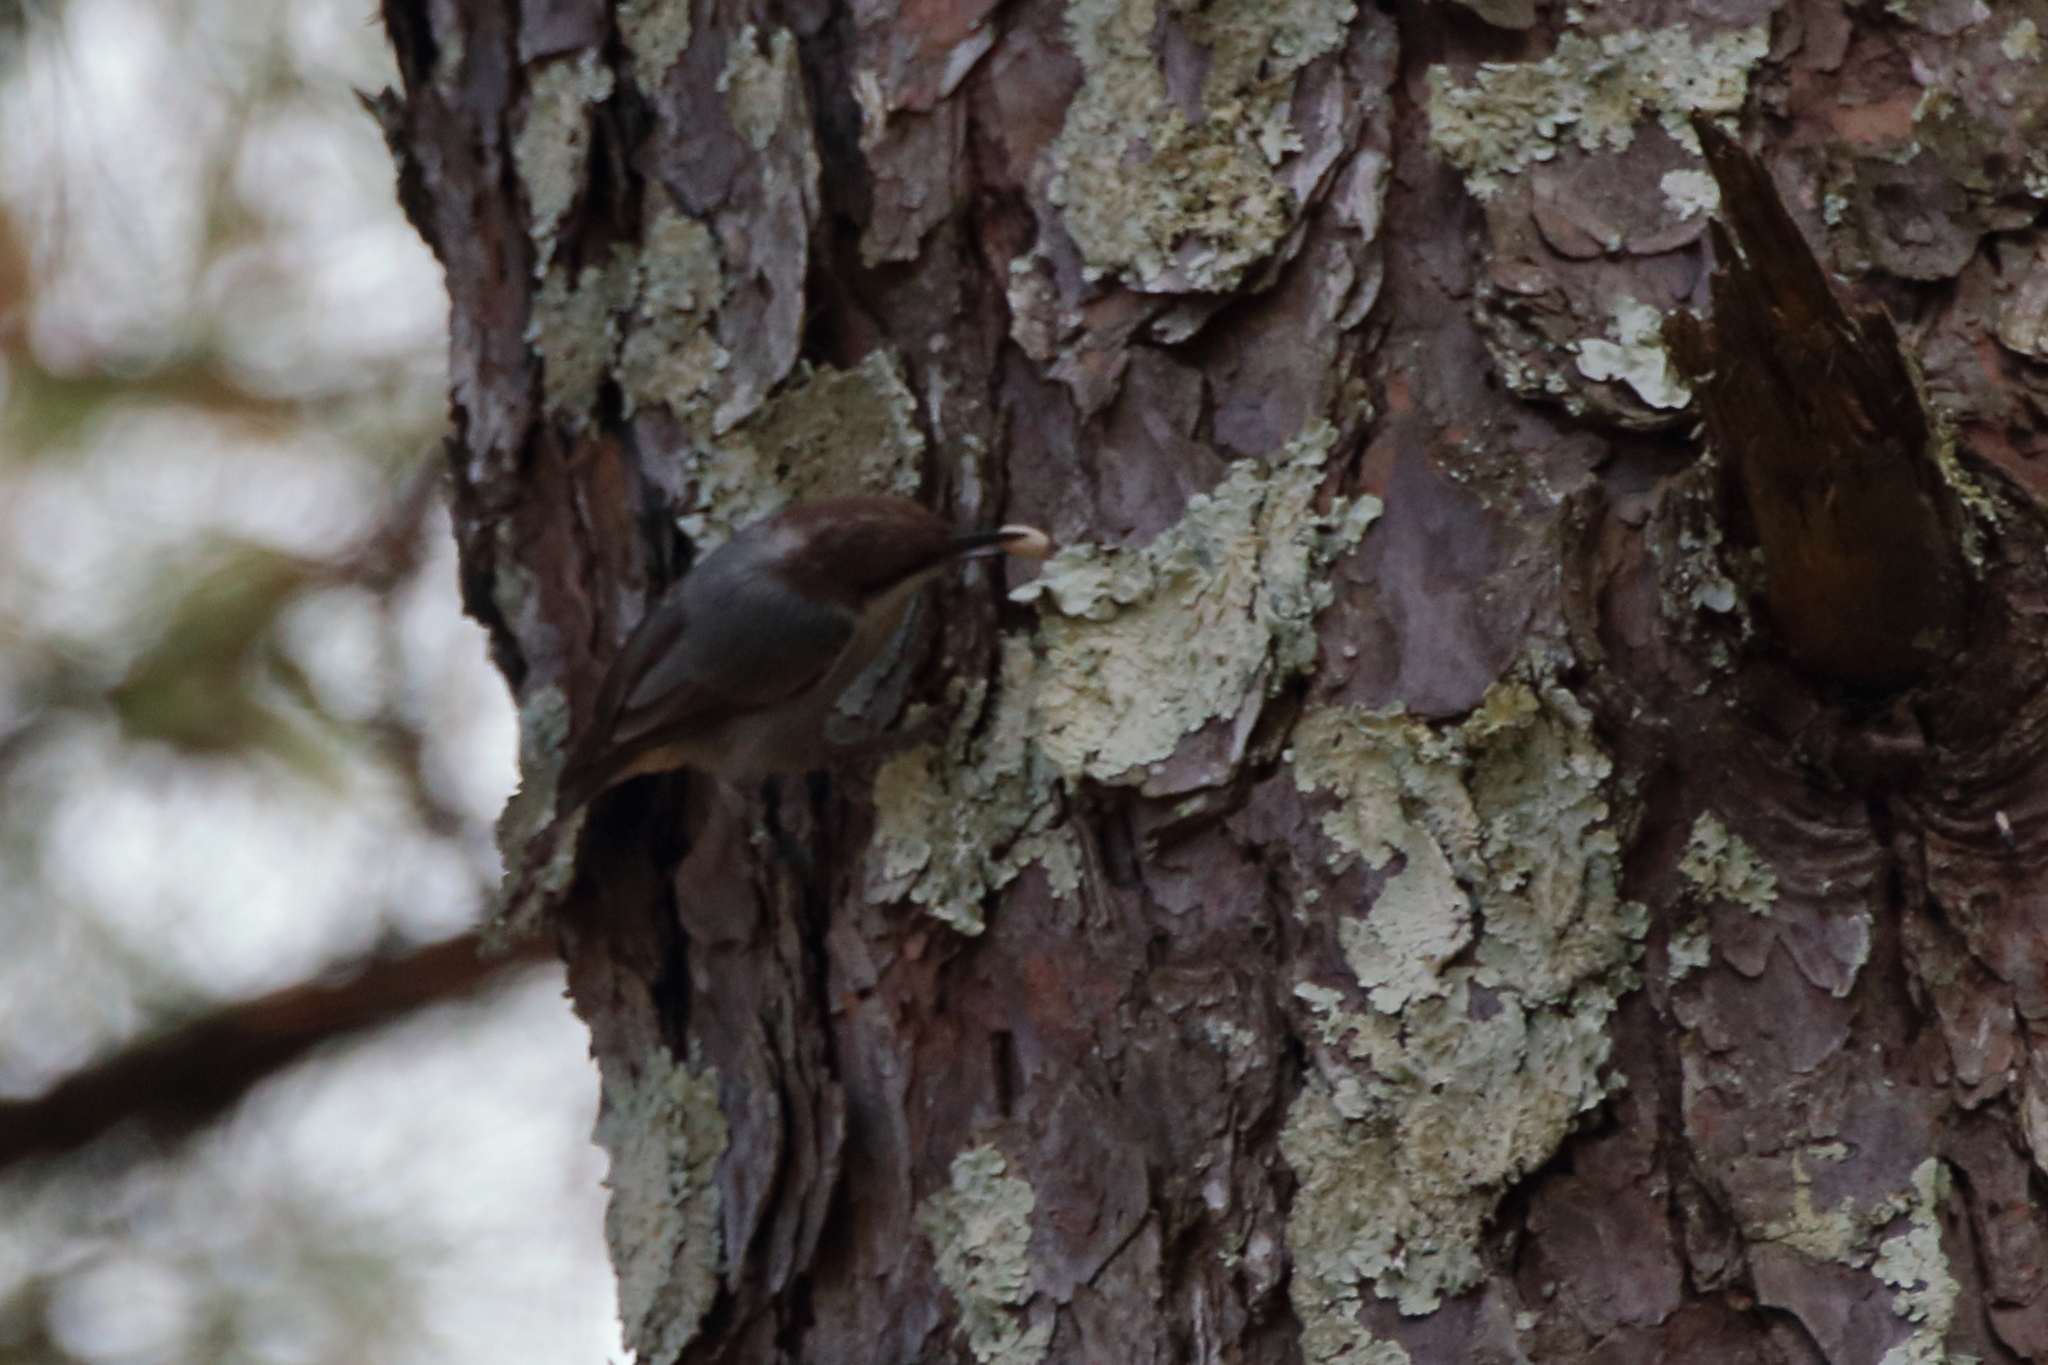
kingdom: Animalia
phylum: Chordata
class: Aves
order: Passeriformes
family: Sittidae
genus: Sitta
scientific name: Sitta pusilla
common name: Brown-headed nuthatch
